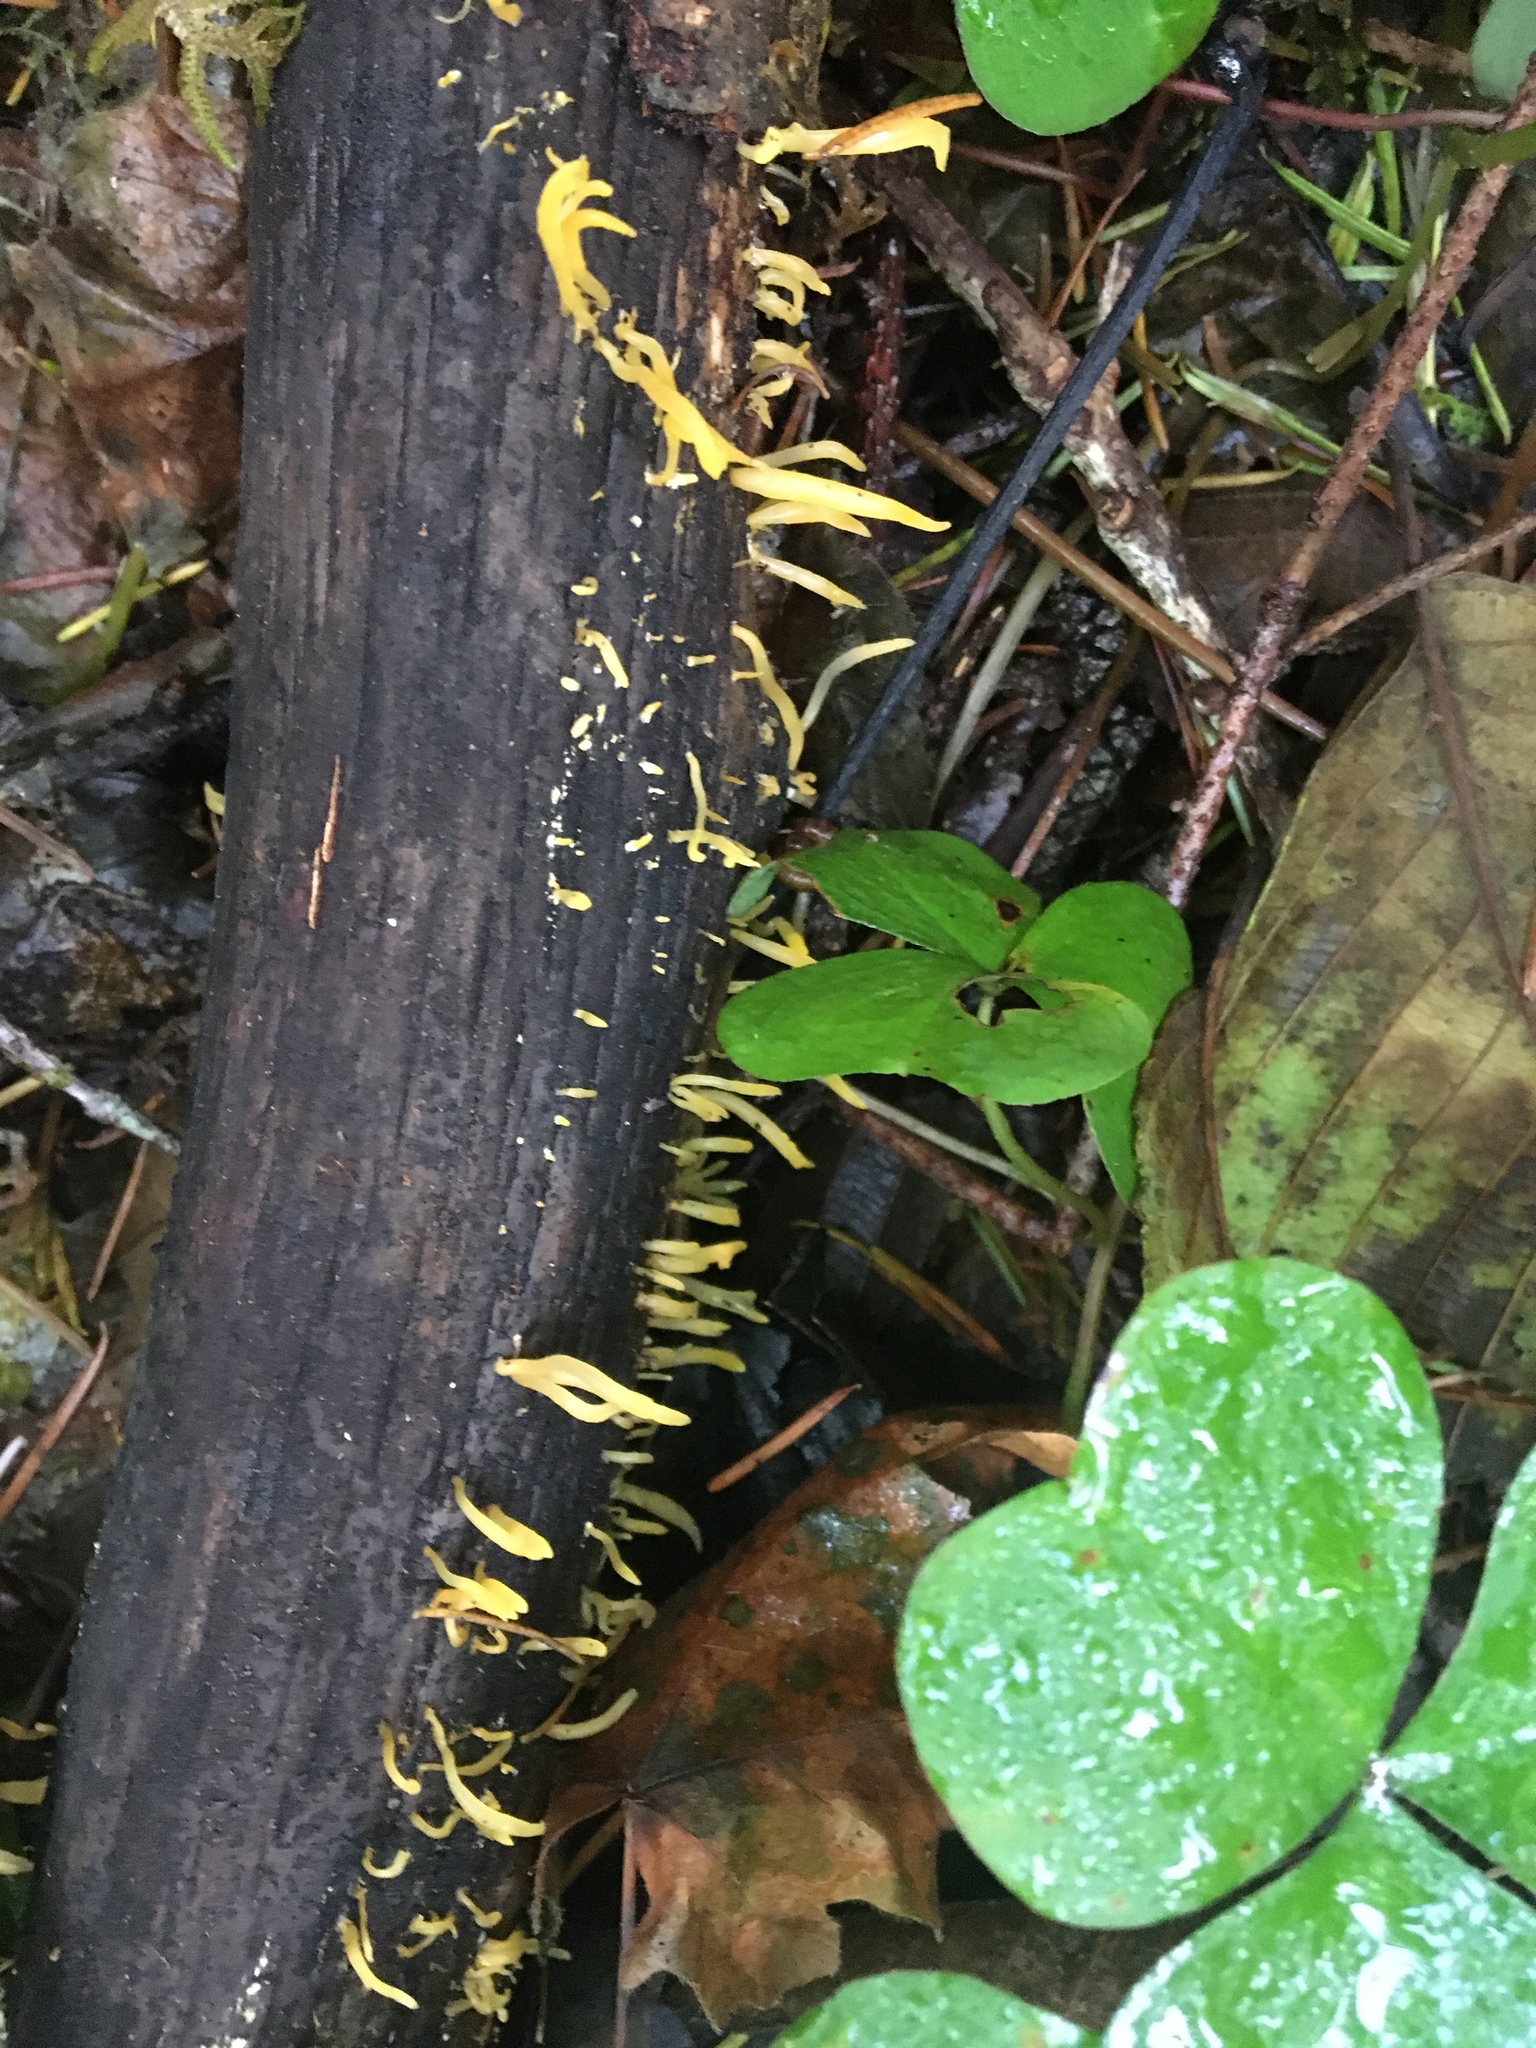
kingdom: Fungi
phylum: Basidiomycota
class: Dacrymycetes
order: Dacrymycetales
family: Dacrymycetaceae
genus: Calocera
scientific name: Calocera cornea
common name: Small stagshorn
